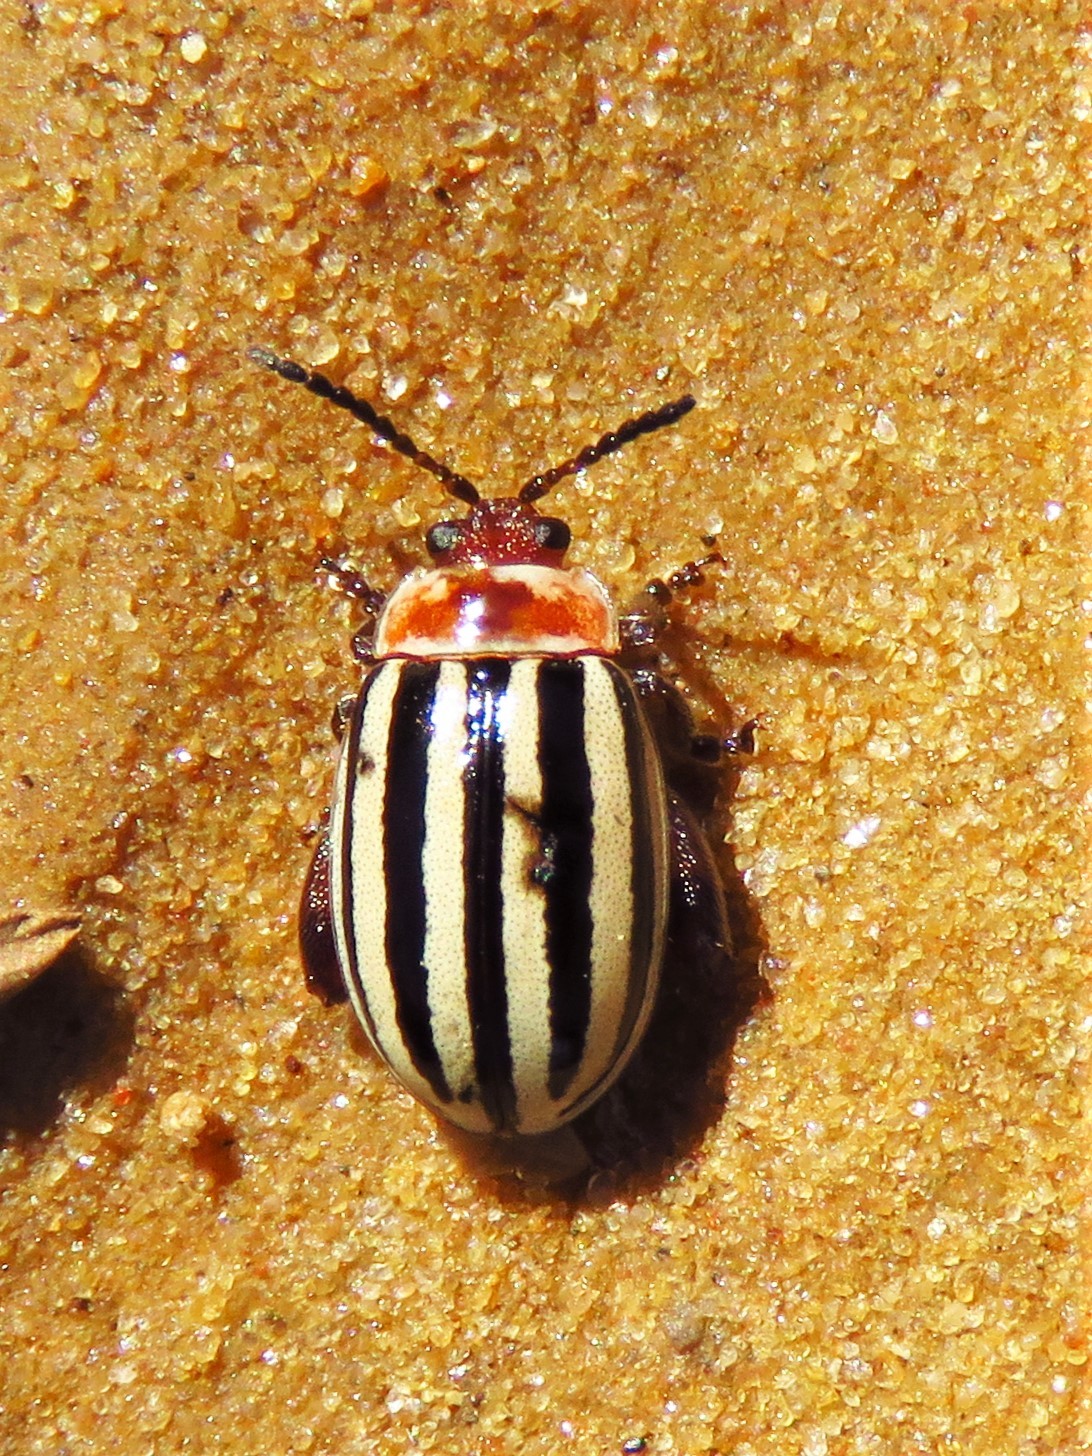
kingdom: Animalia
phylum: Arthropoda
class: Insecta
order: Coleoptera
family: Chrysomelidae
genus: Kuschelina
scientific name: Kuschelina petaurista
